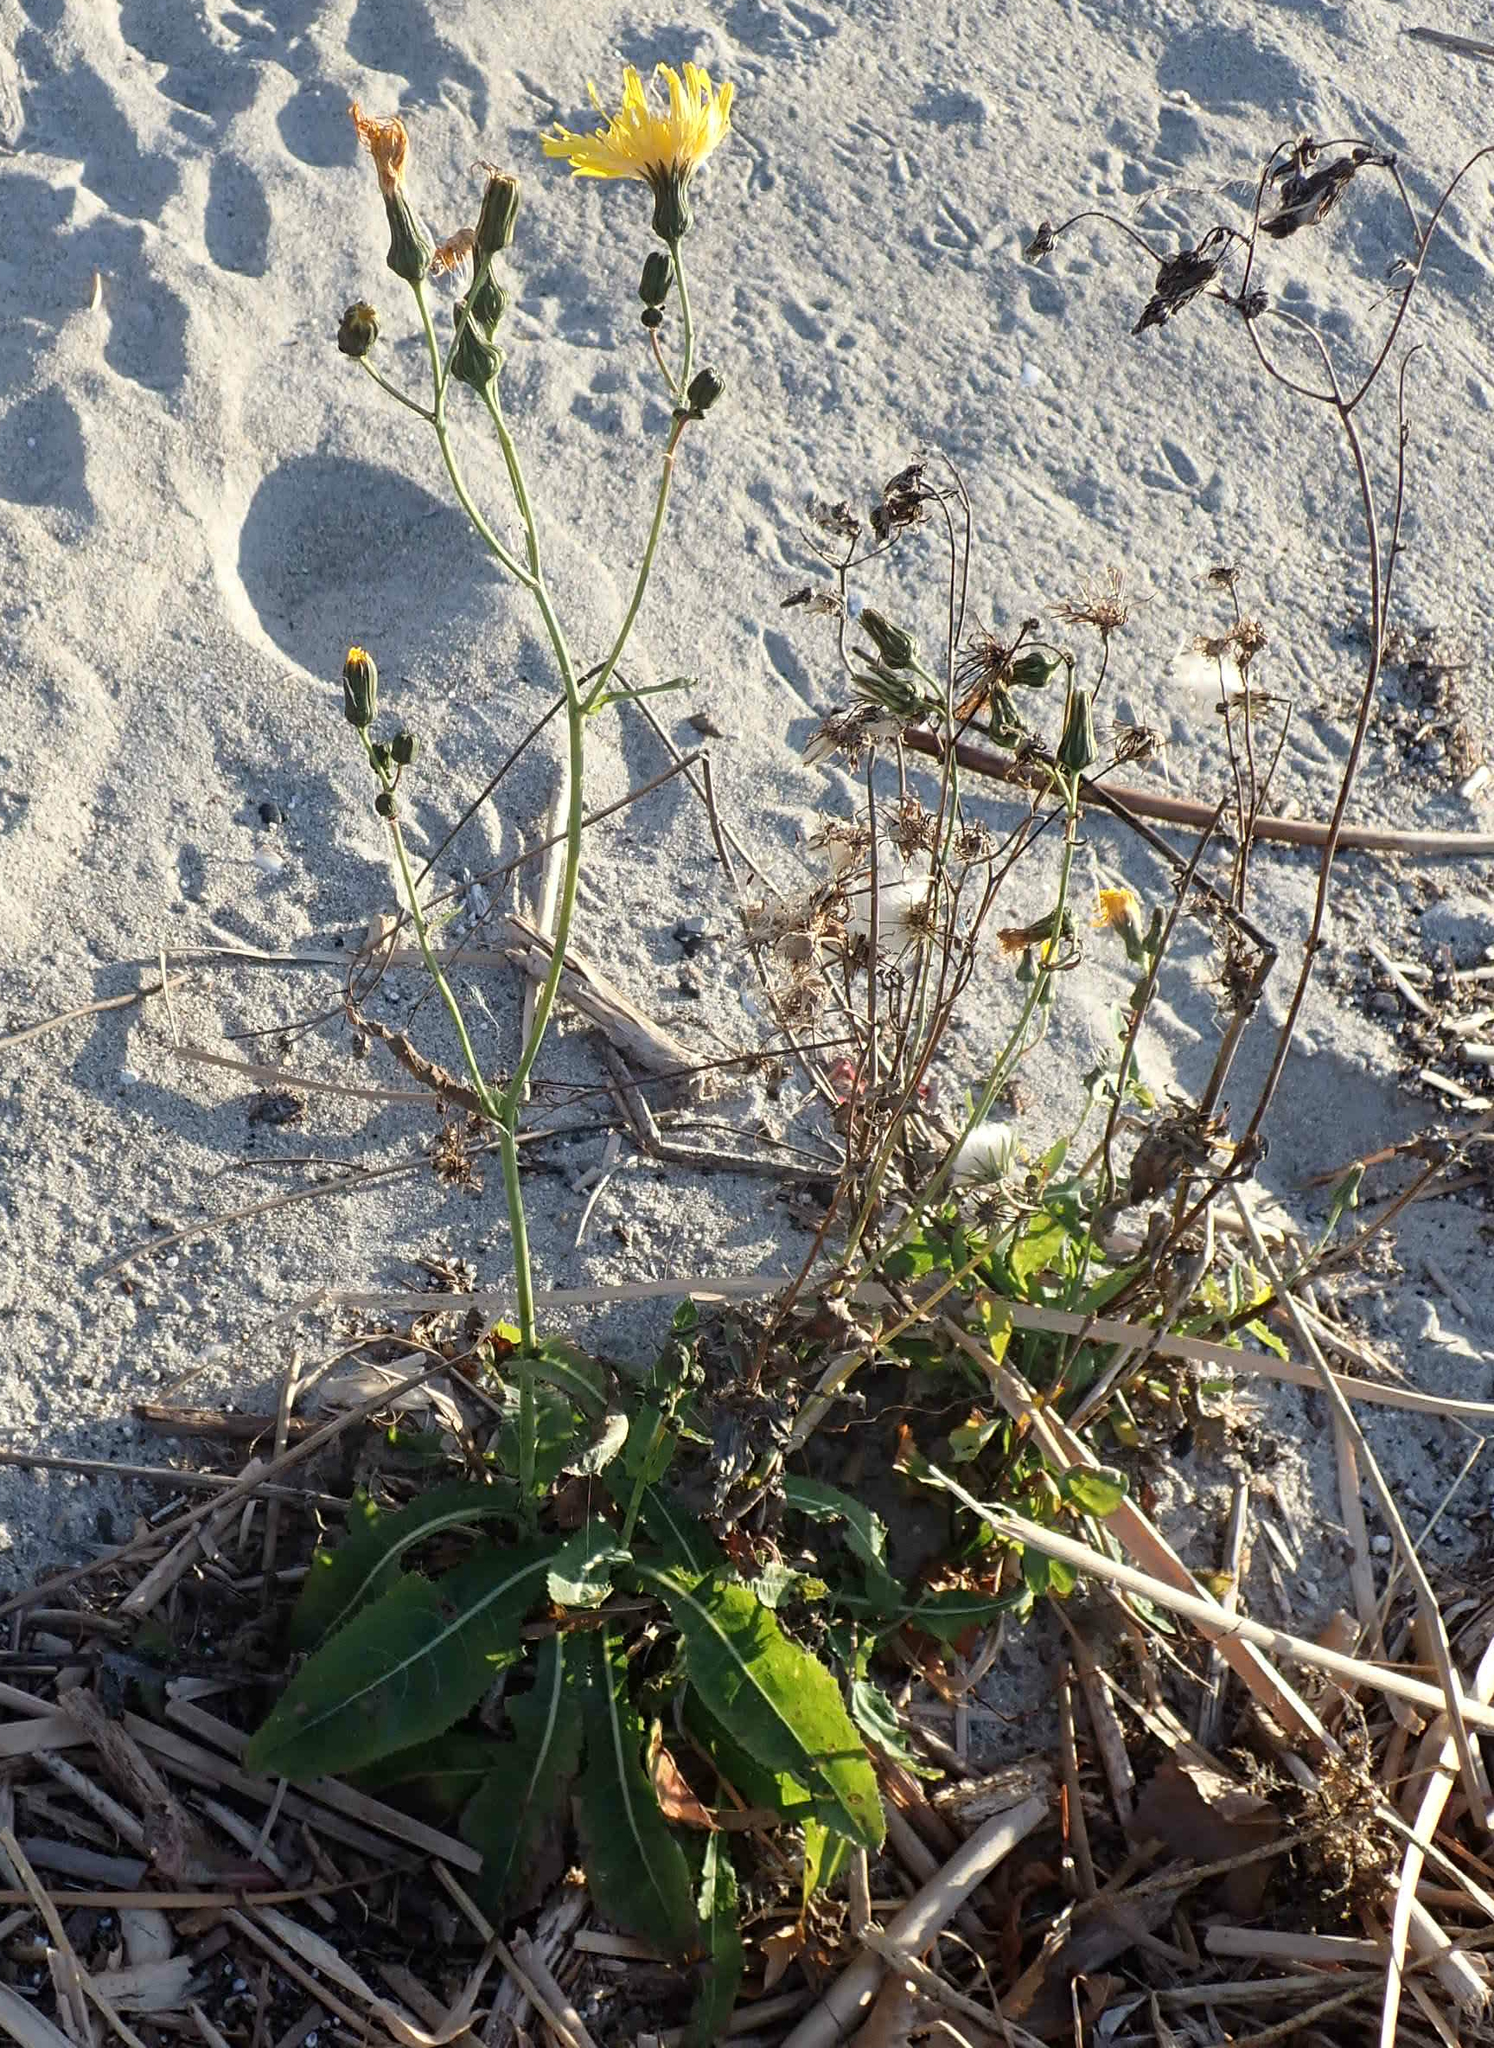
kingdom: Plantae
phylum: Tracheophyta
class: Magnoliopsida
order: Asterales
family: Asteraceae
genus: Sonchus
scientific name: Sonchus arvensis
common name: Perennial sow-thistle
